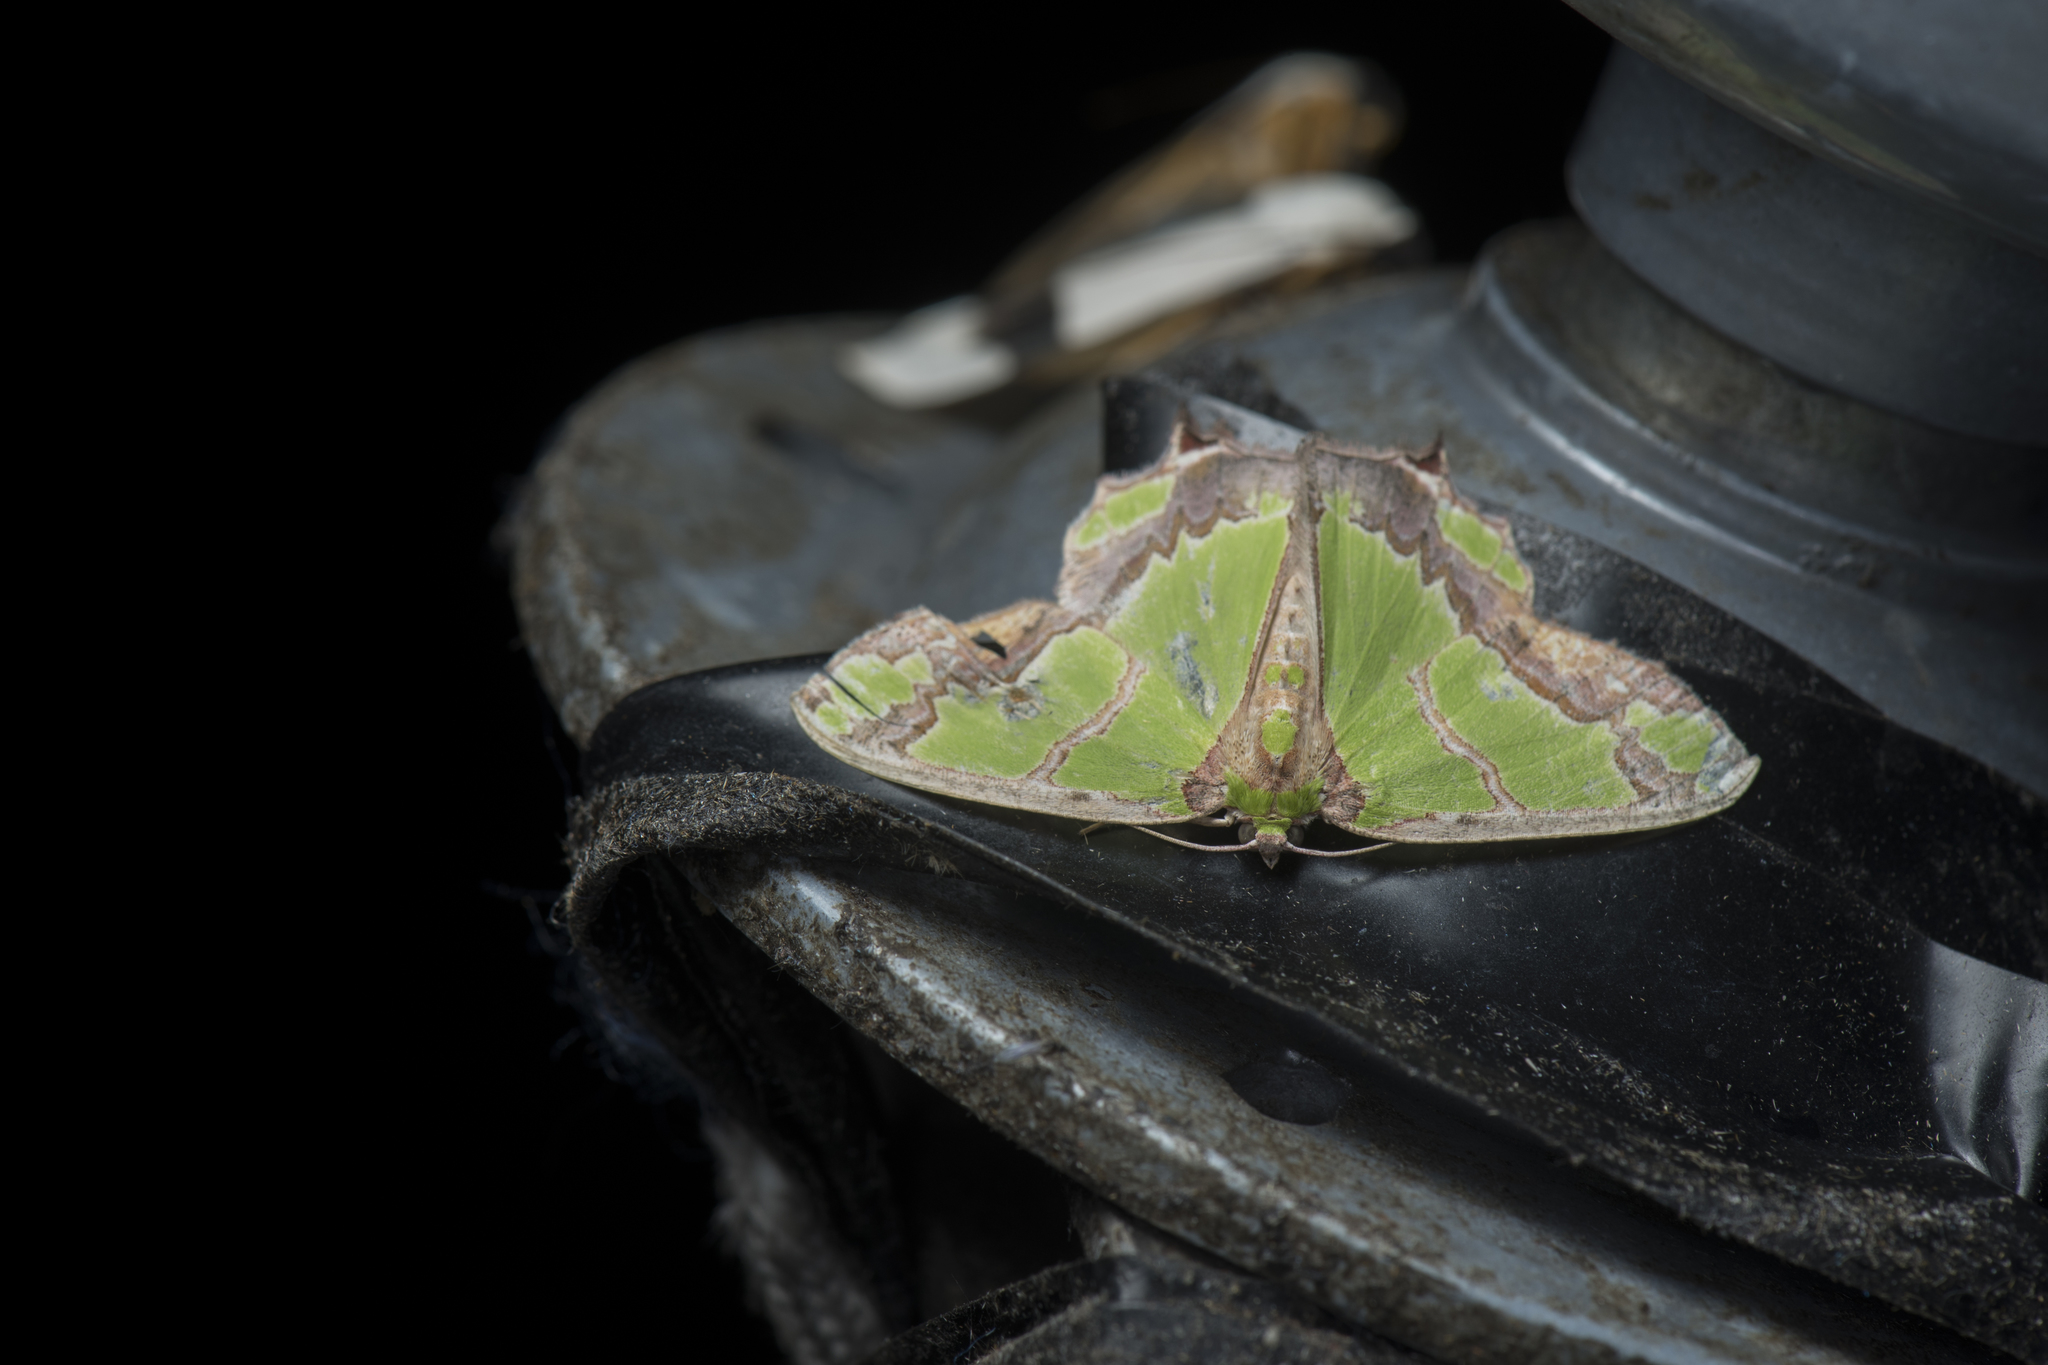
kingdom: Animalia
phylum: Arthropoda
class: Insecta
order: Lepidoptera
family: Geometridae
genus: Agathia
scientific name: Agathia magnificentia
